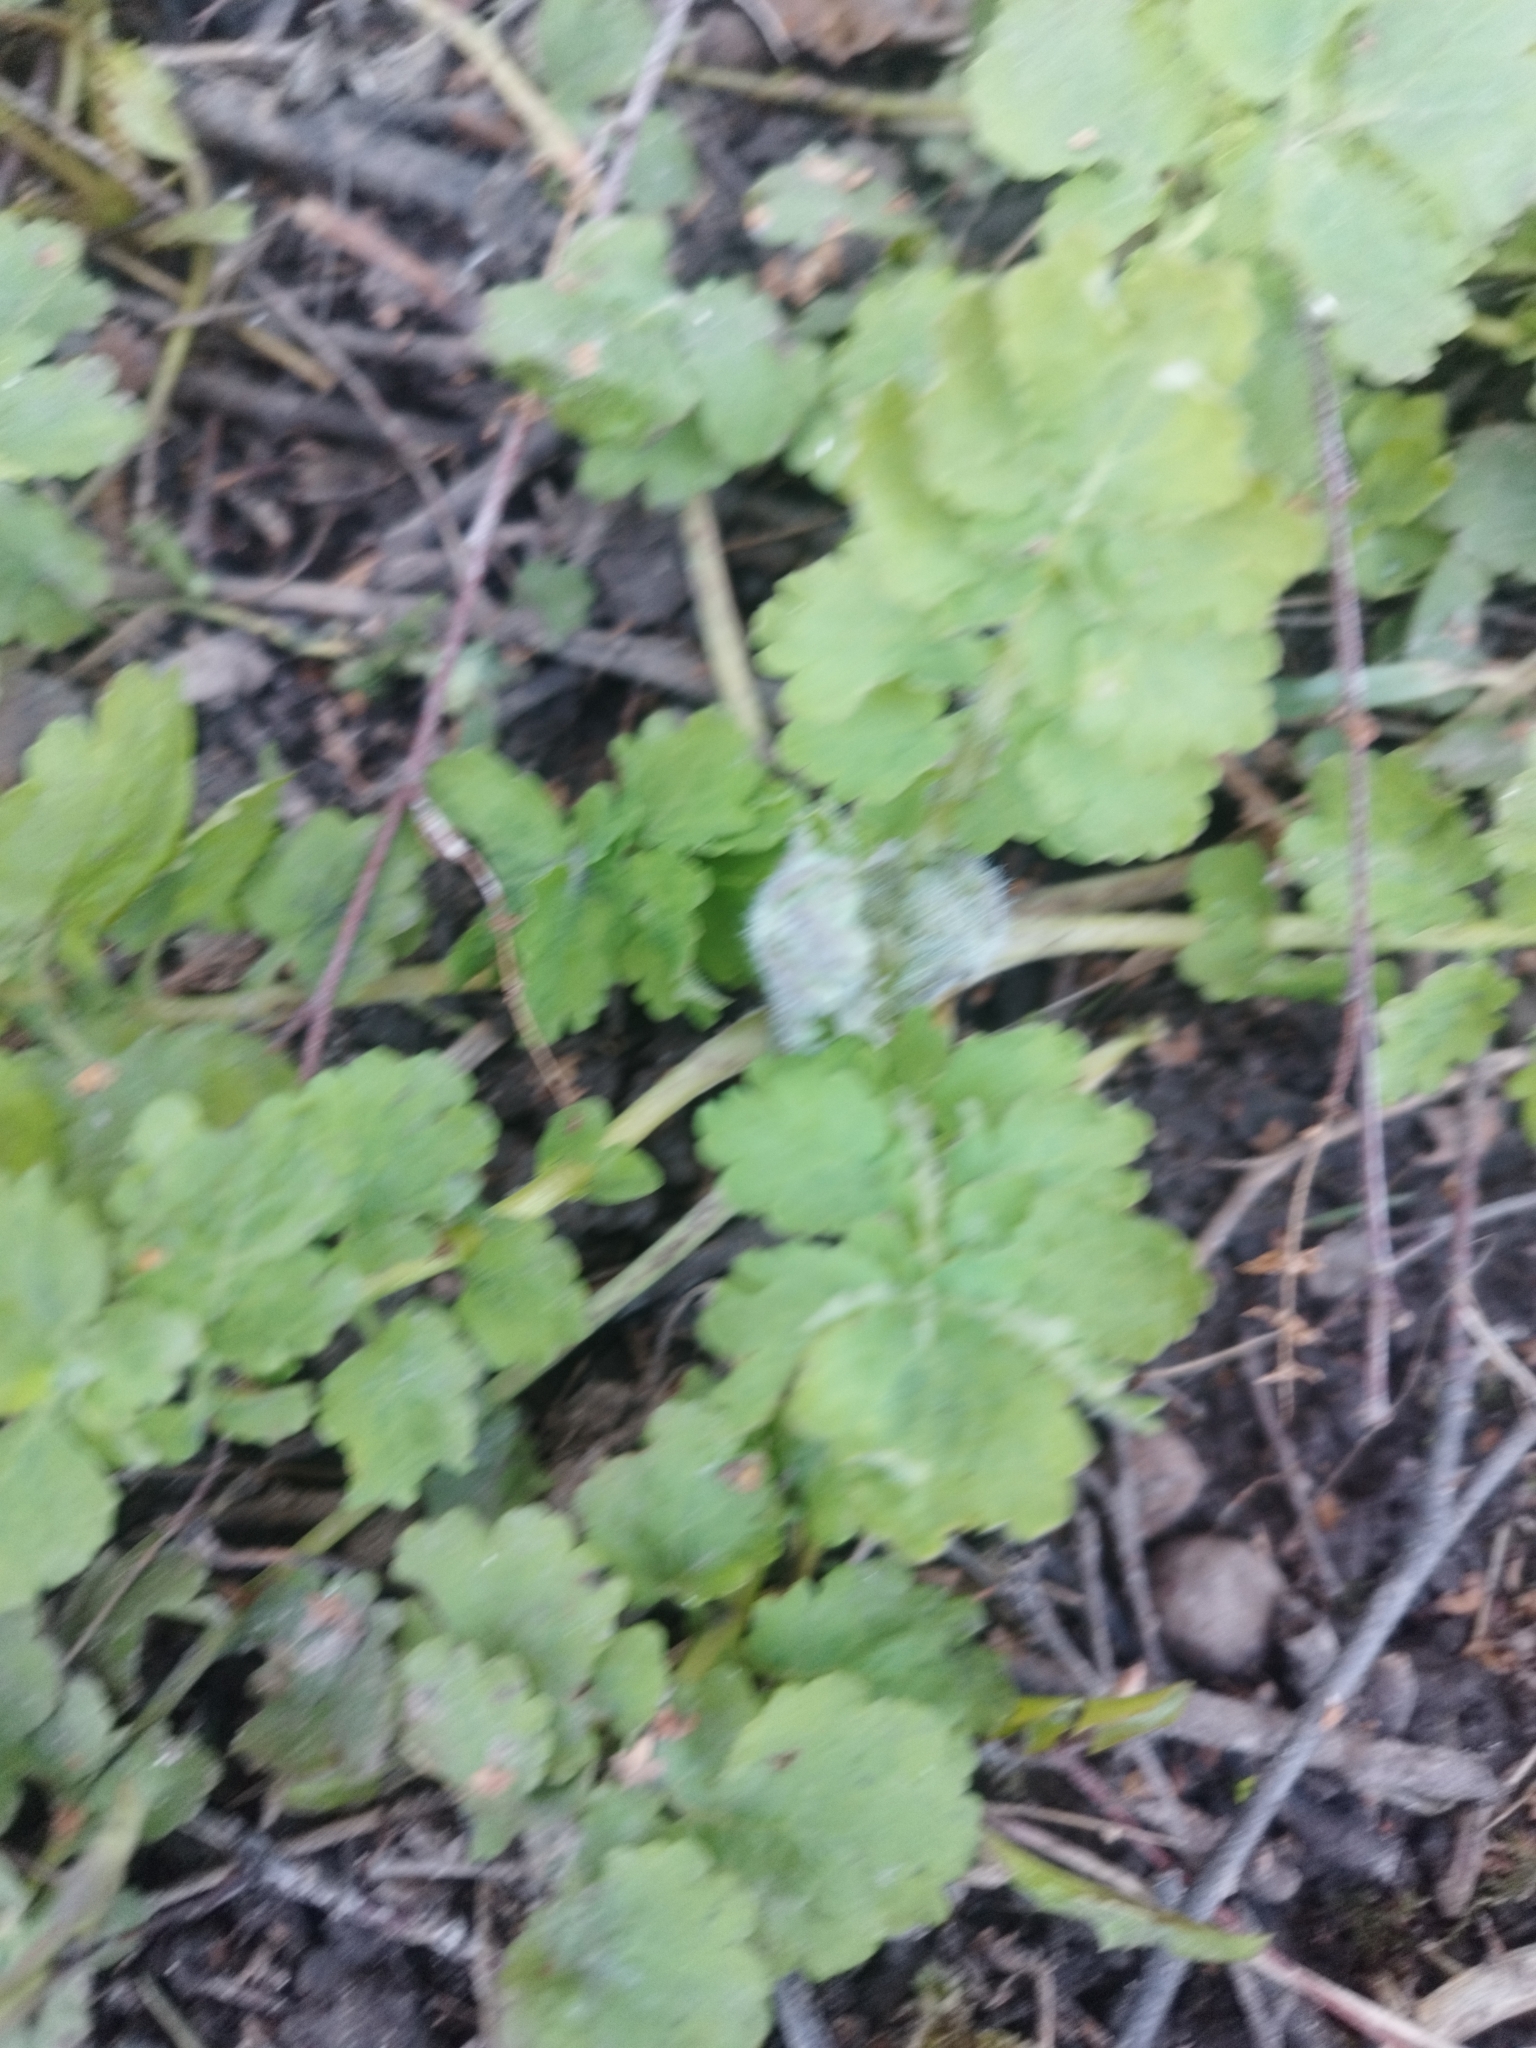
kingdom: Plantae
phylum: Tracheophyta
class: Magnoliopsida
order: Ranunculales
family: Papaveraceae
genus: Chelidonium
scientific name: Chelidonium majus
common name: Greater celandine
